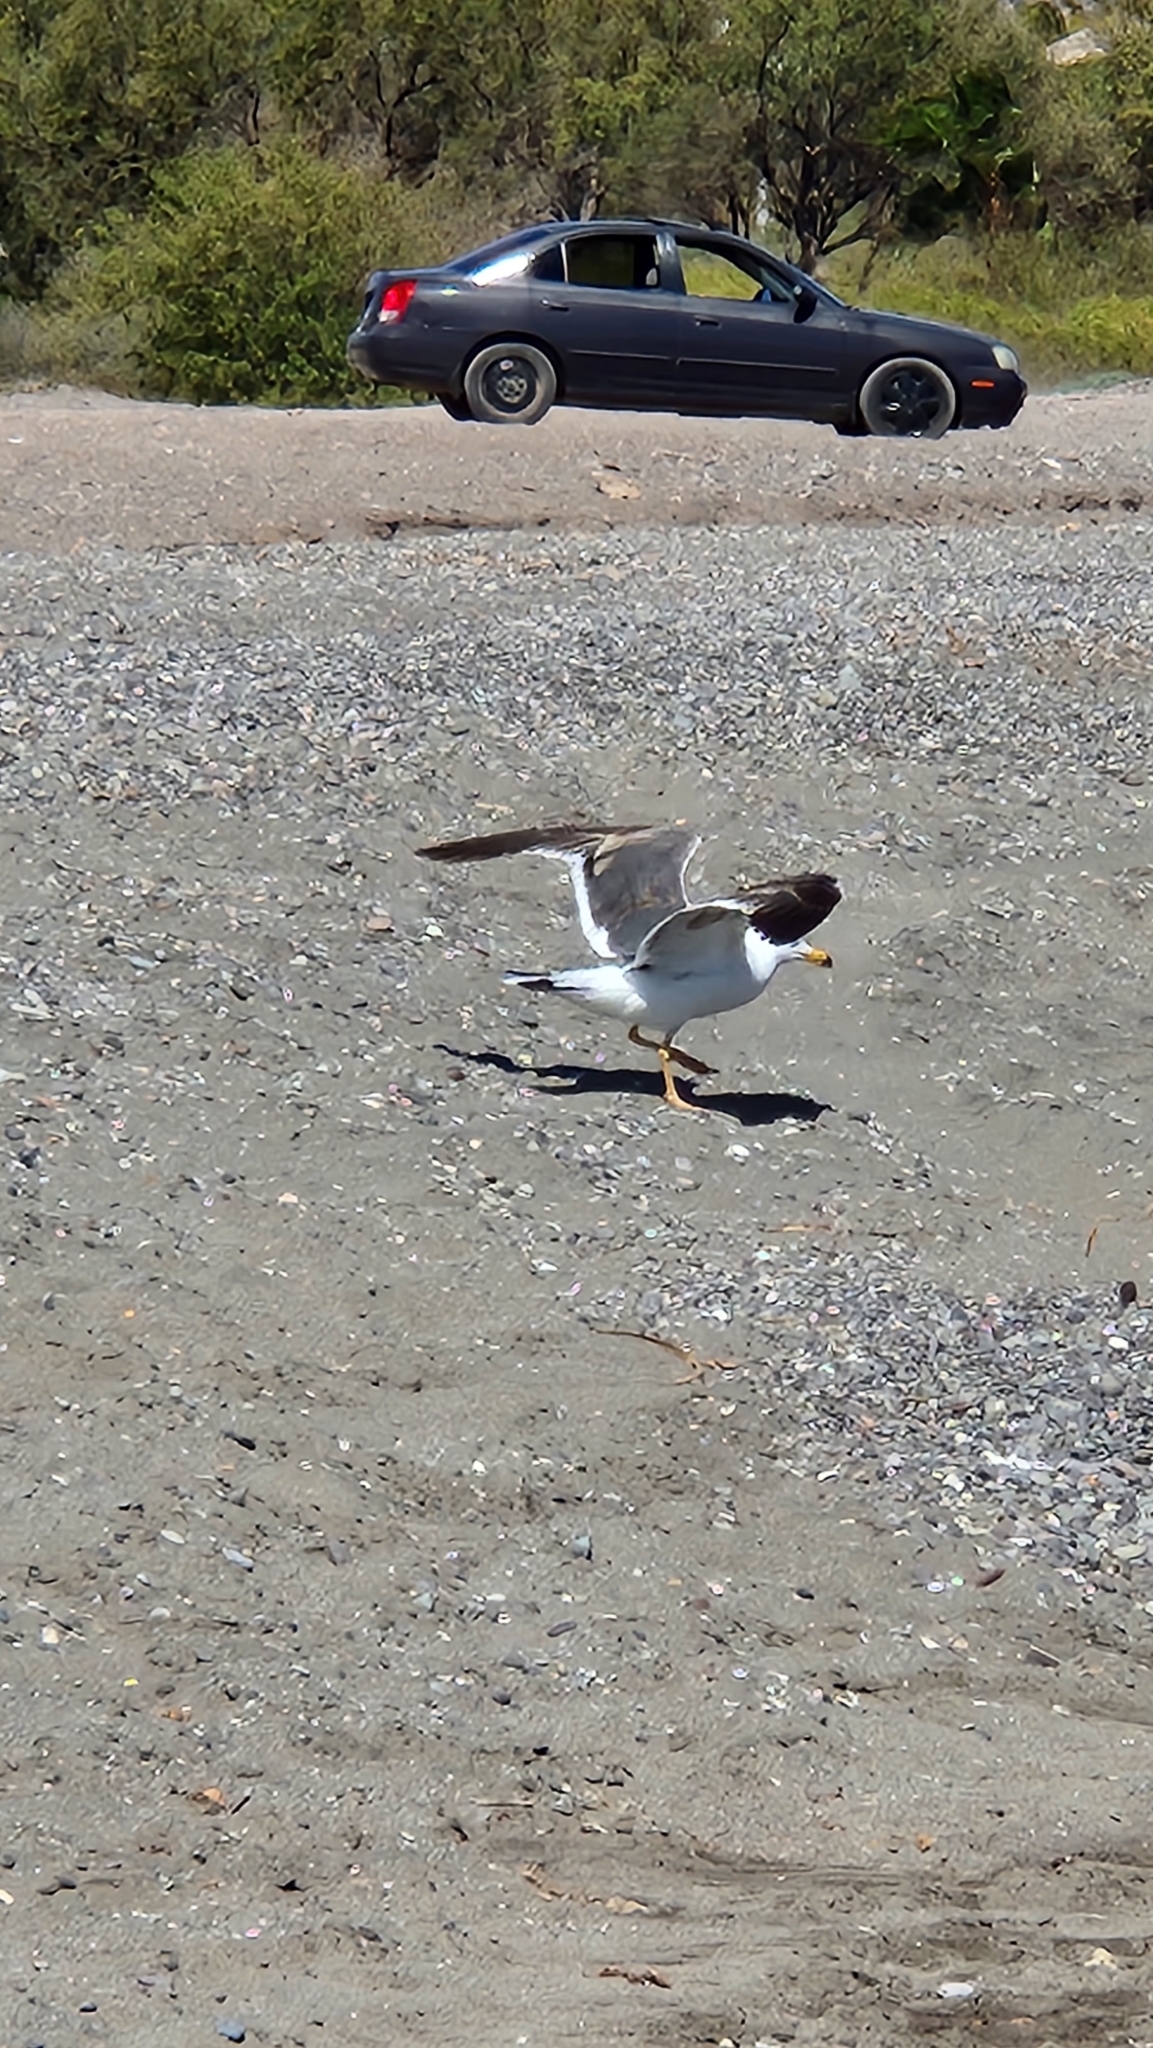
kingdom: Animalia
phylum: Chordata
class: Aves
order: Charadriiformes
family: Laridae
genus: Larus
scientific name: Larus livens
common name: Yellow-footed gull
